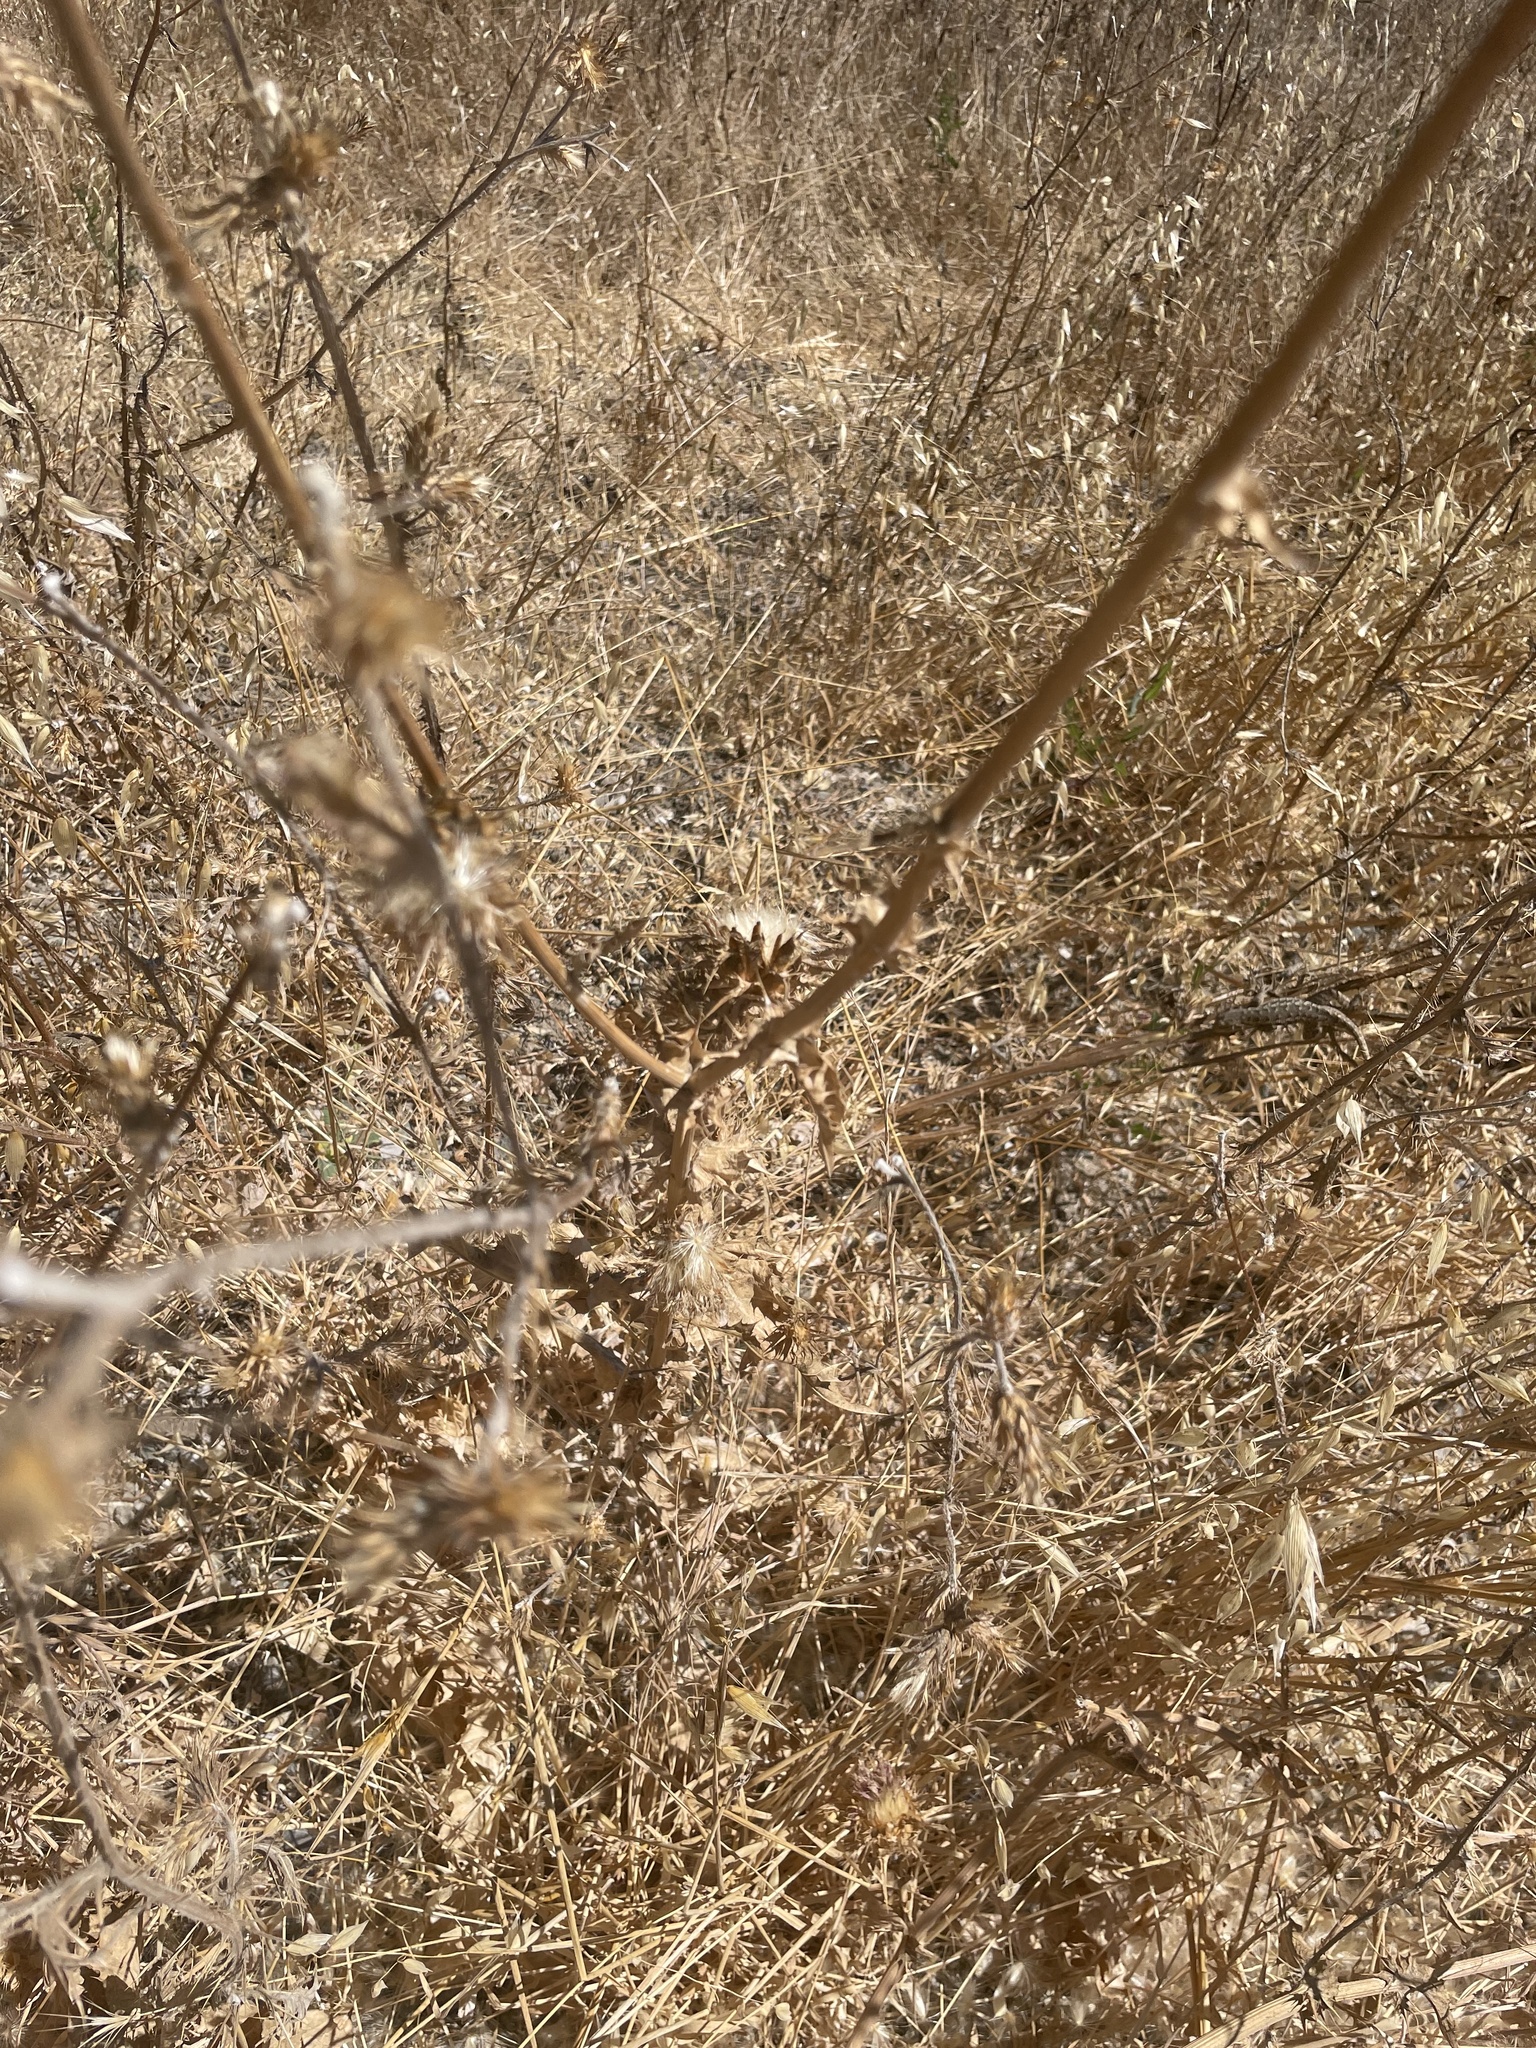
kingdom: Plantae
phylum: Tracheophyta
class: Magnoliopsida
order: Asterales
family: Asteraceae
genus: Silybum
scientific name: Silybum marianum
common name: Milk thistle
